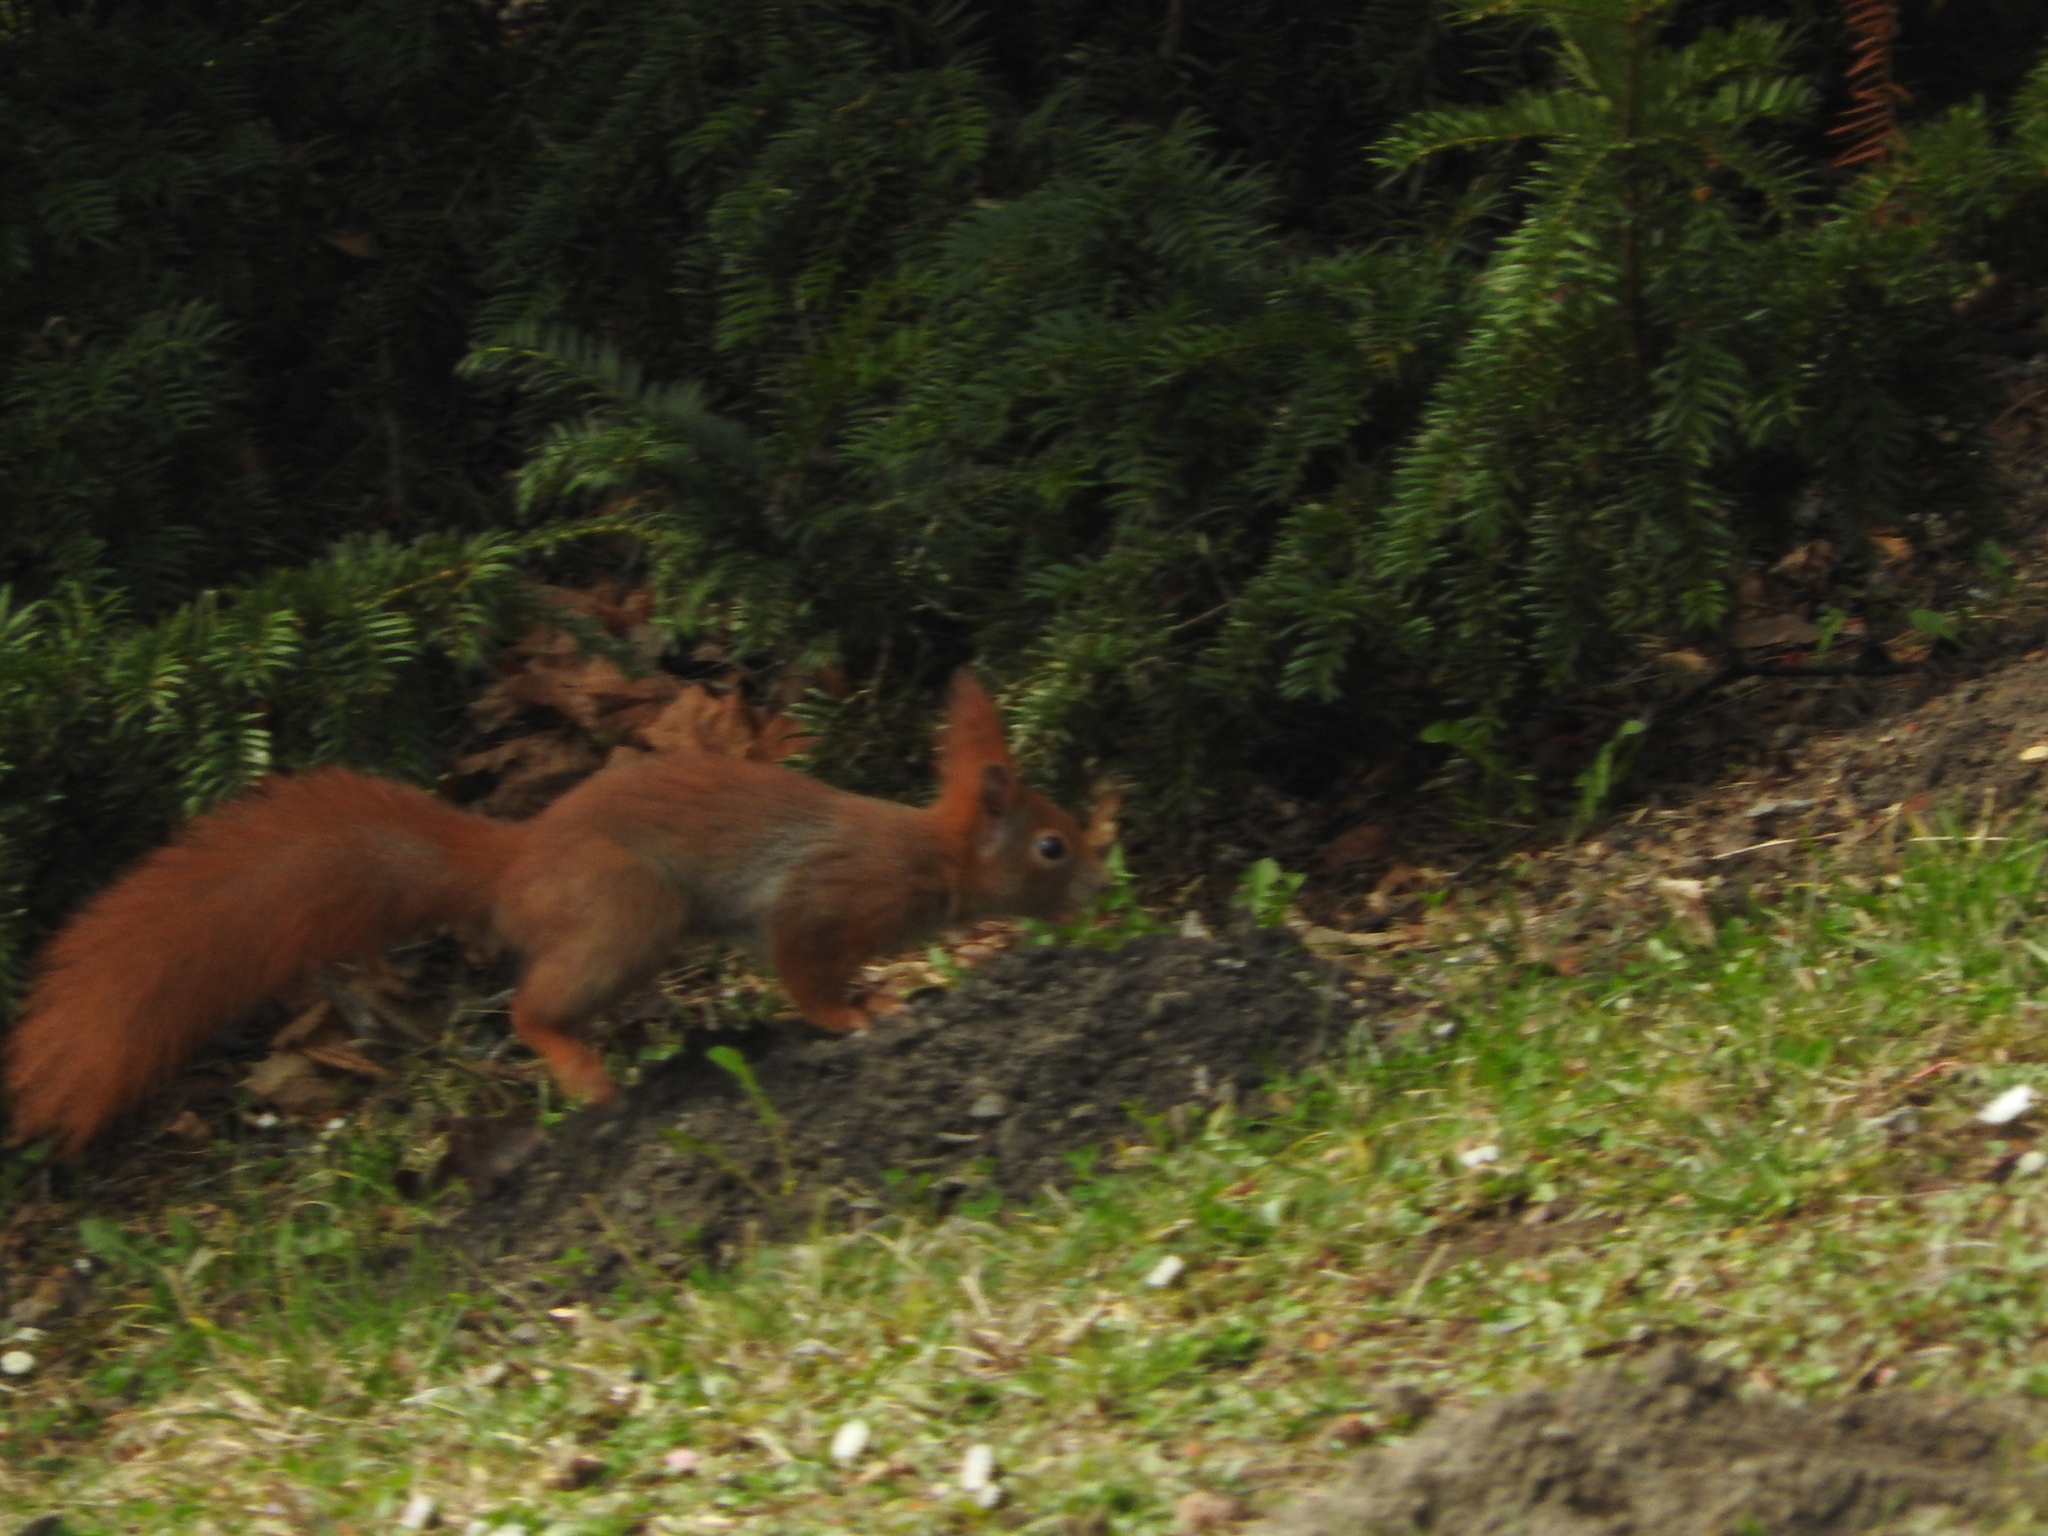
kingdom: Animalia
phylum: Chordata
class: Mammalia
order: Rodentia
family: Sciuridae
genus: Sciurus
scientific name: Sciurus vulgaris
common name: Eurasian red squirrel
